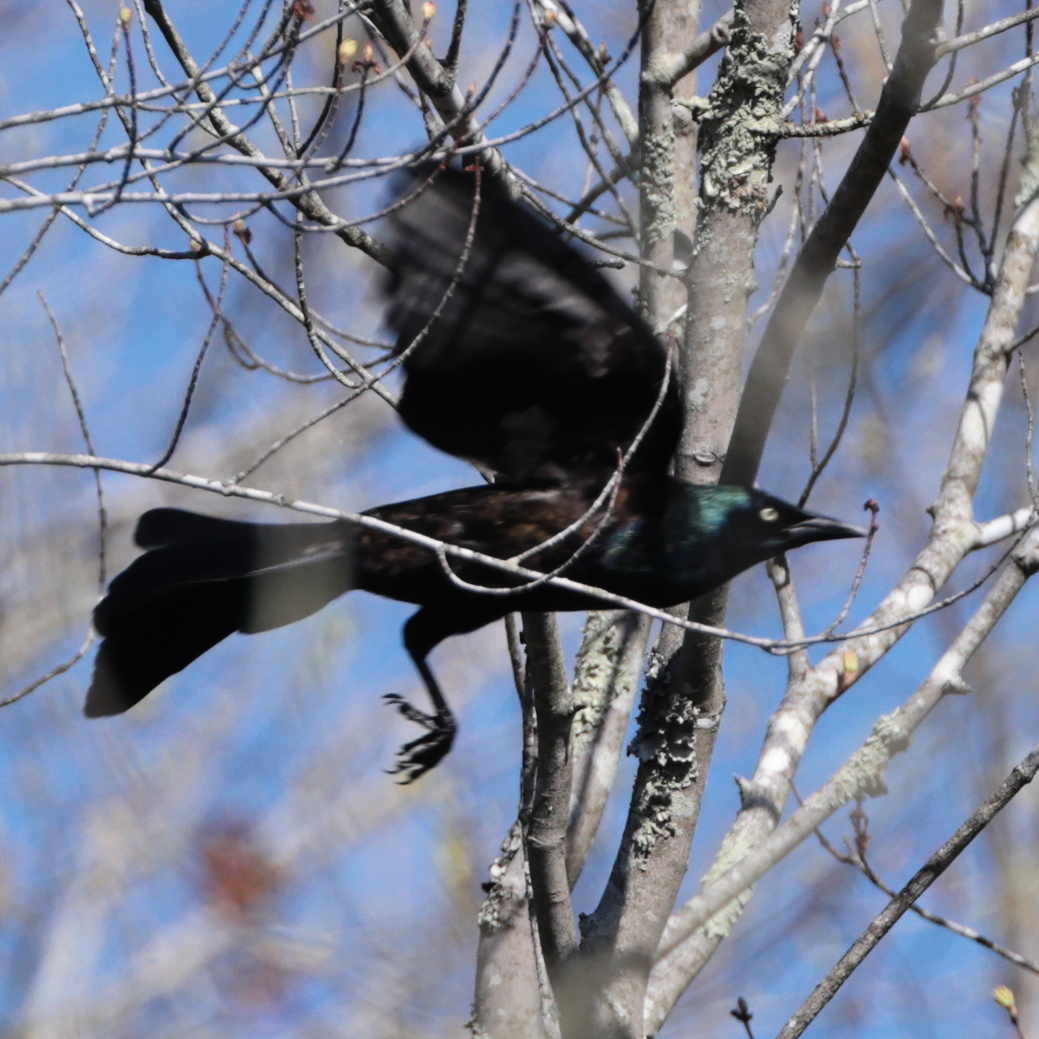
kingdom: Animalia
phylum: Chordata
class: Aves
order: Passeriformes
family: Icteridae
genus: Quiscalus
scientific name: Quiscalus quiscula
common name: Common grackle
